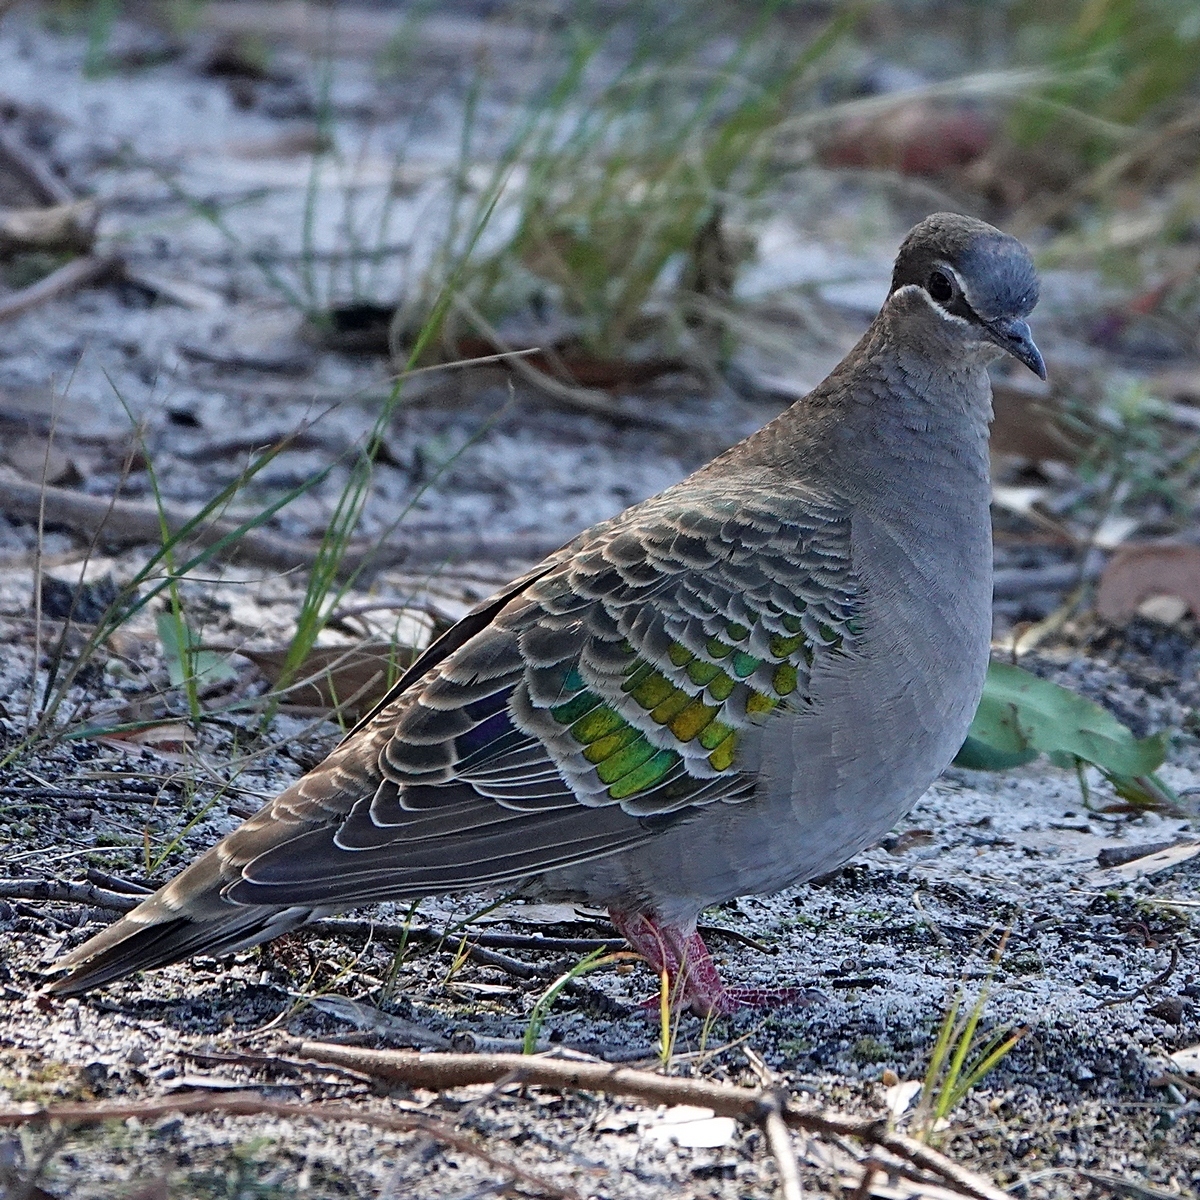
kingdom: Animalia
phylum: Chordata
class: Aves
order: Columbiformes
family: Columbidae
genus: Phaps
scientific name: Phaps chalcoptera
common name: Common bronzewing
